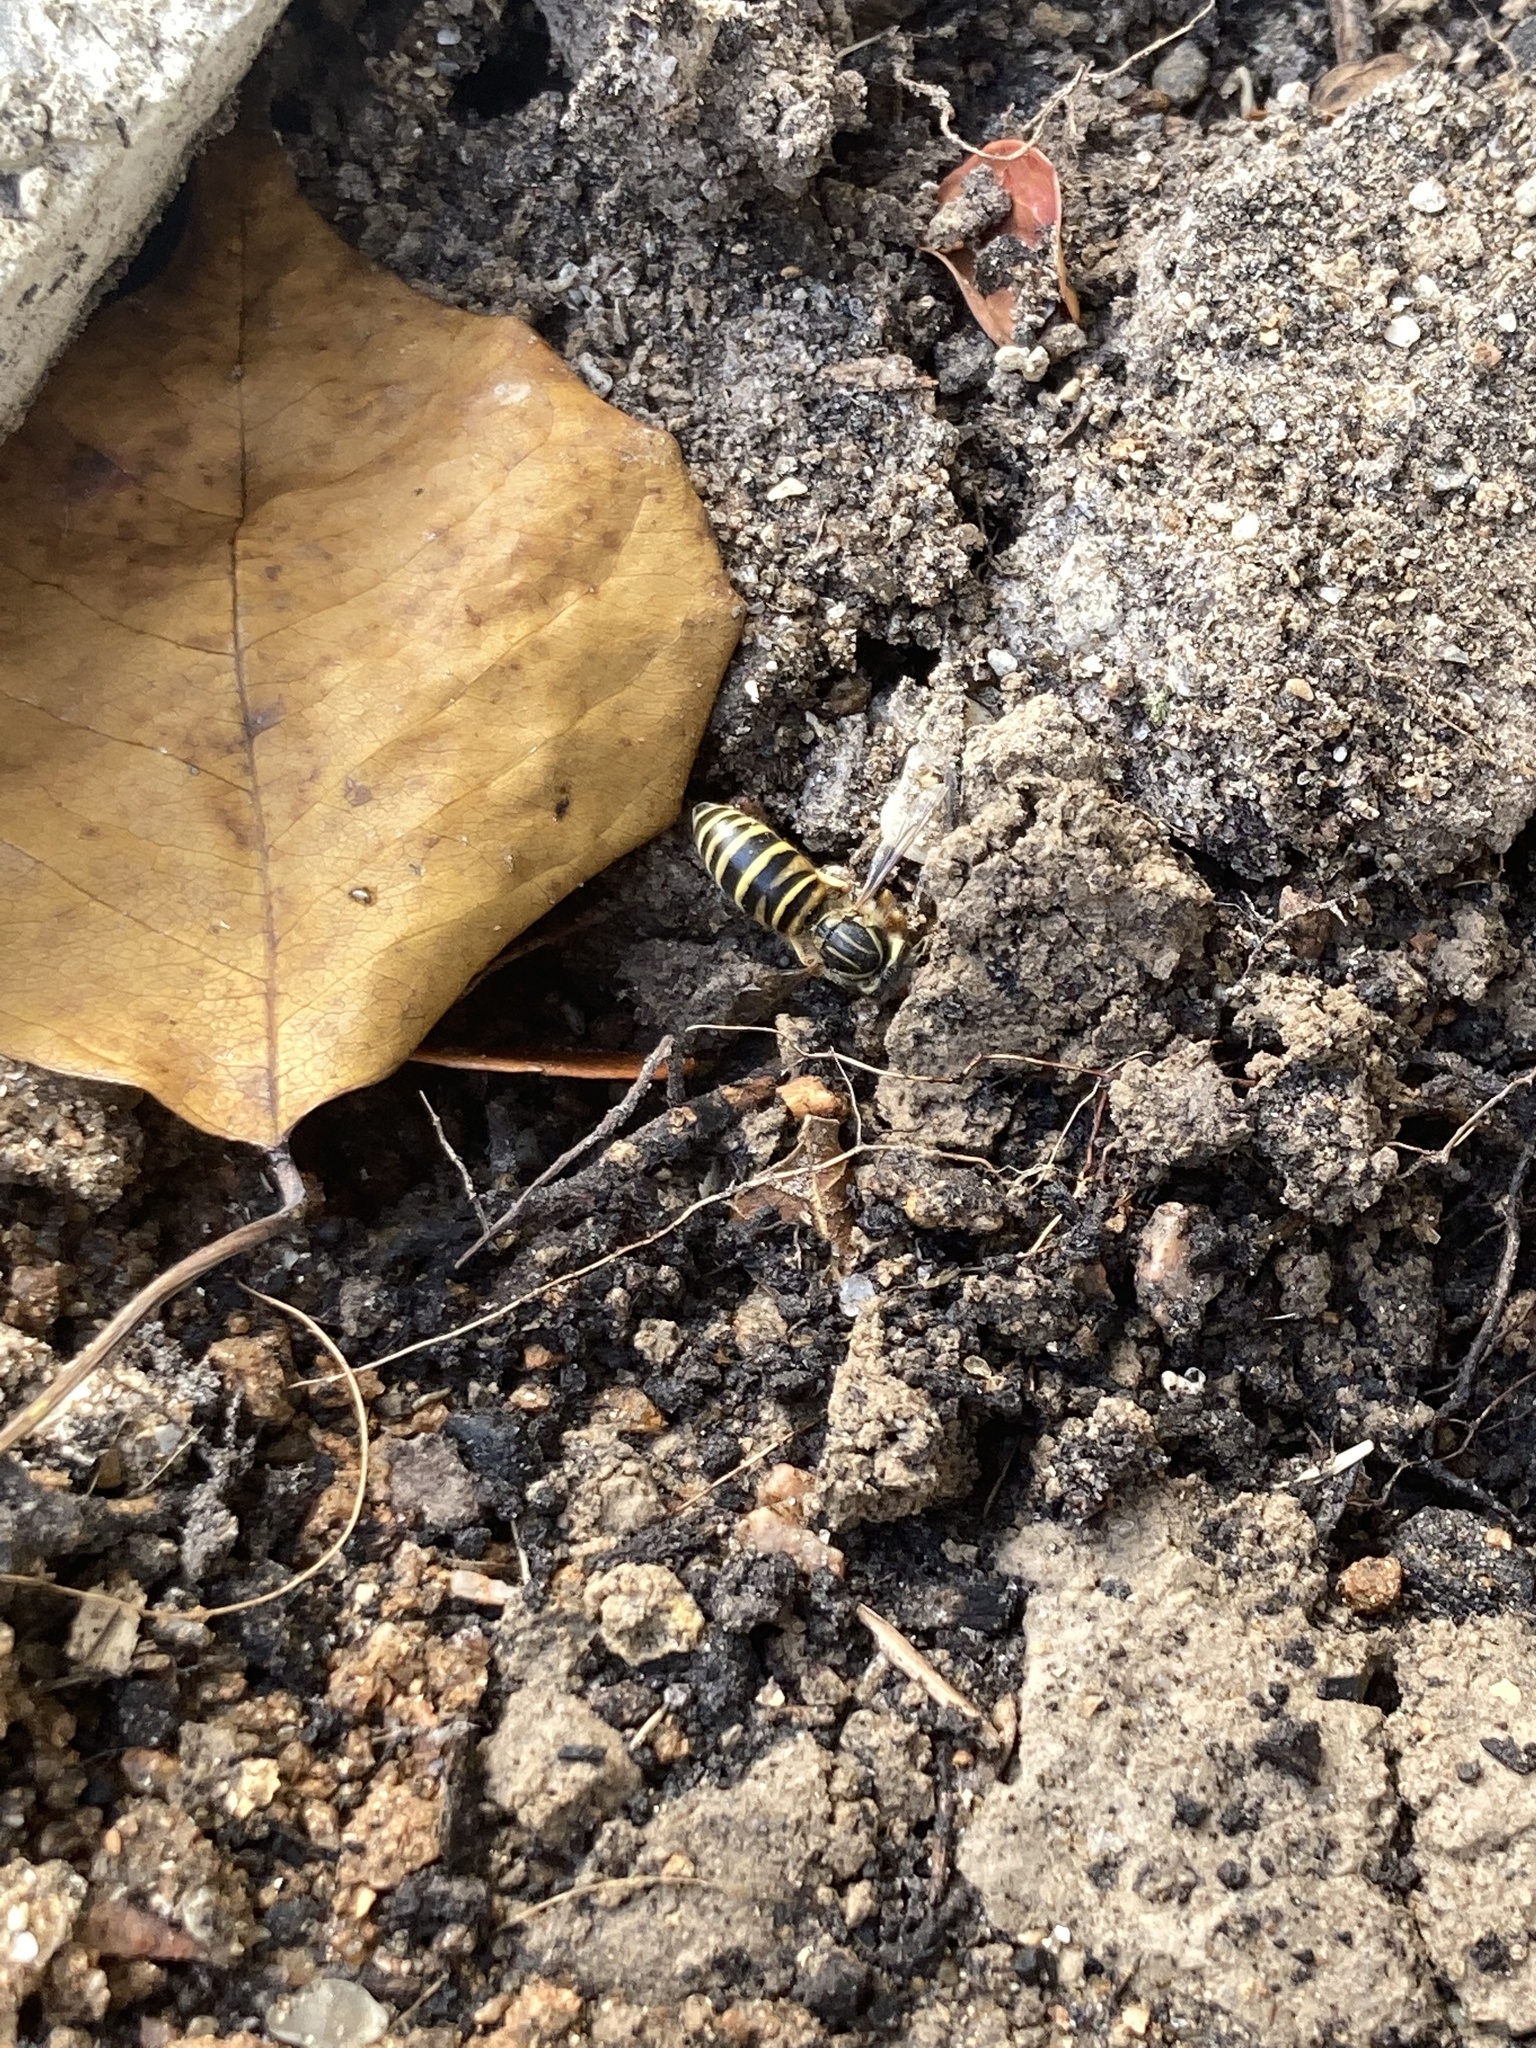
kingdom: Animalia
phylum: Arthropoda
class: Insecta
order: Hymenoptera
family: Vespidae
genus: Vespula
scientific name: Vespula squamosa
